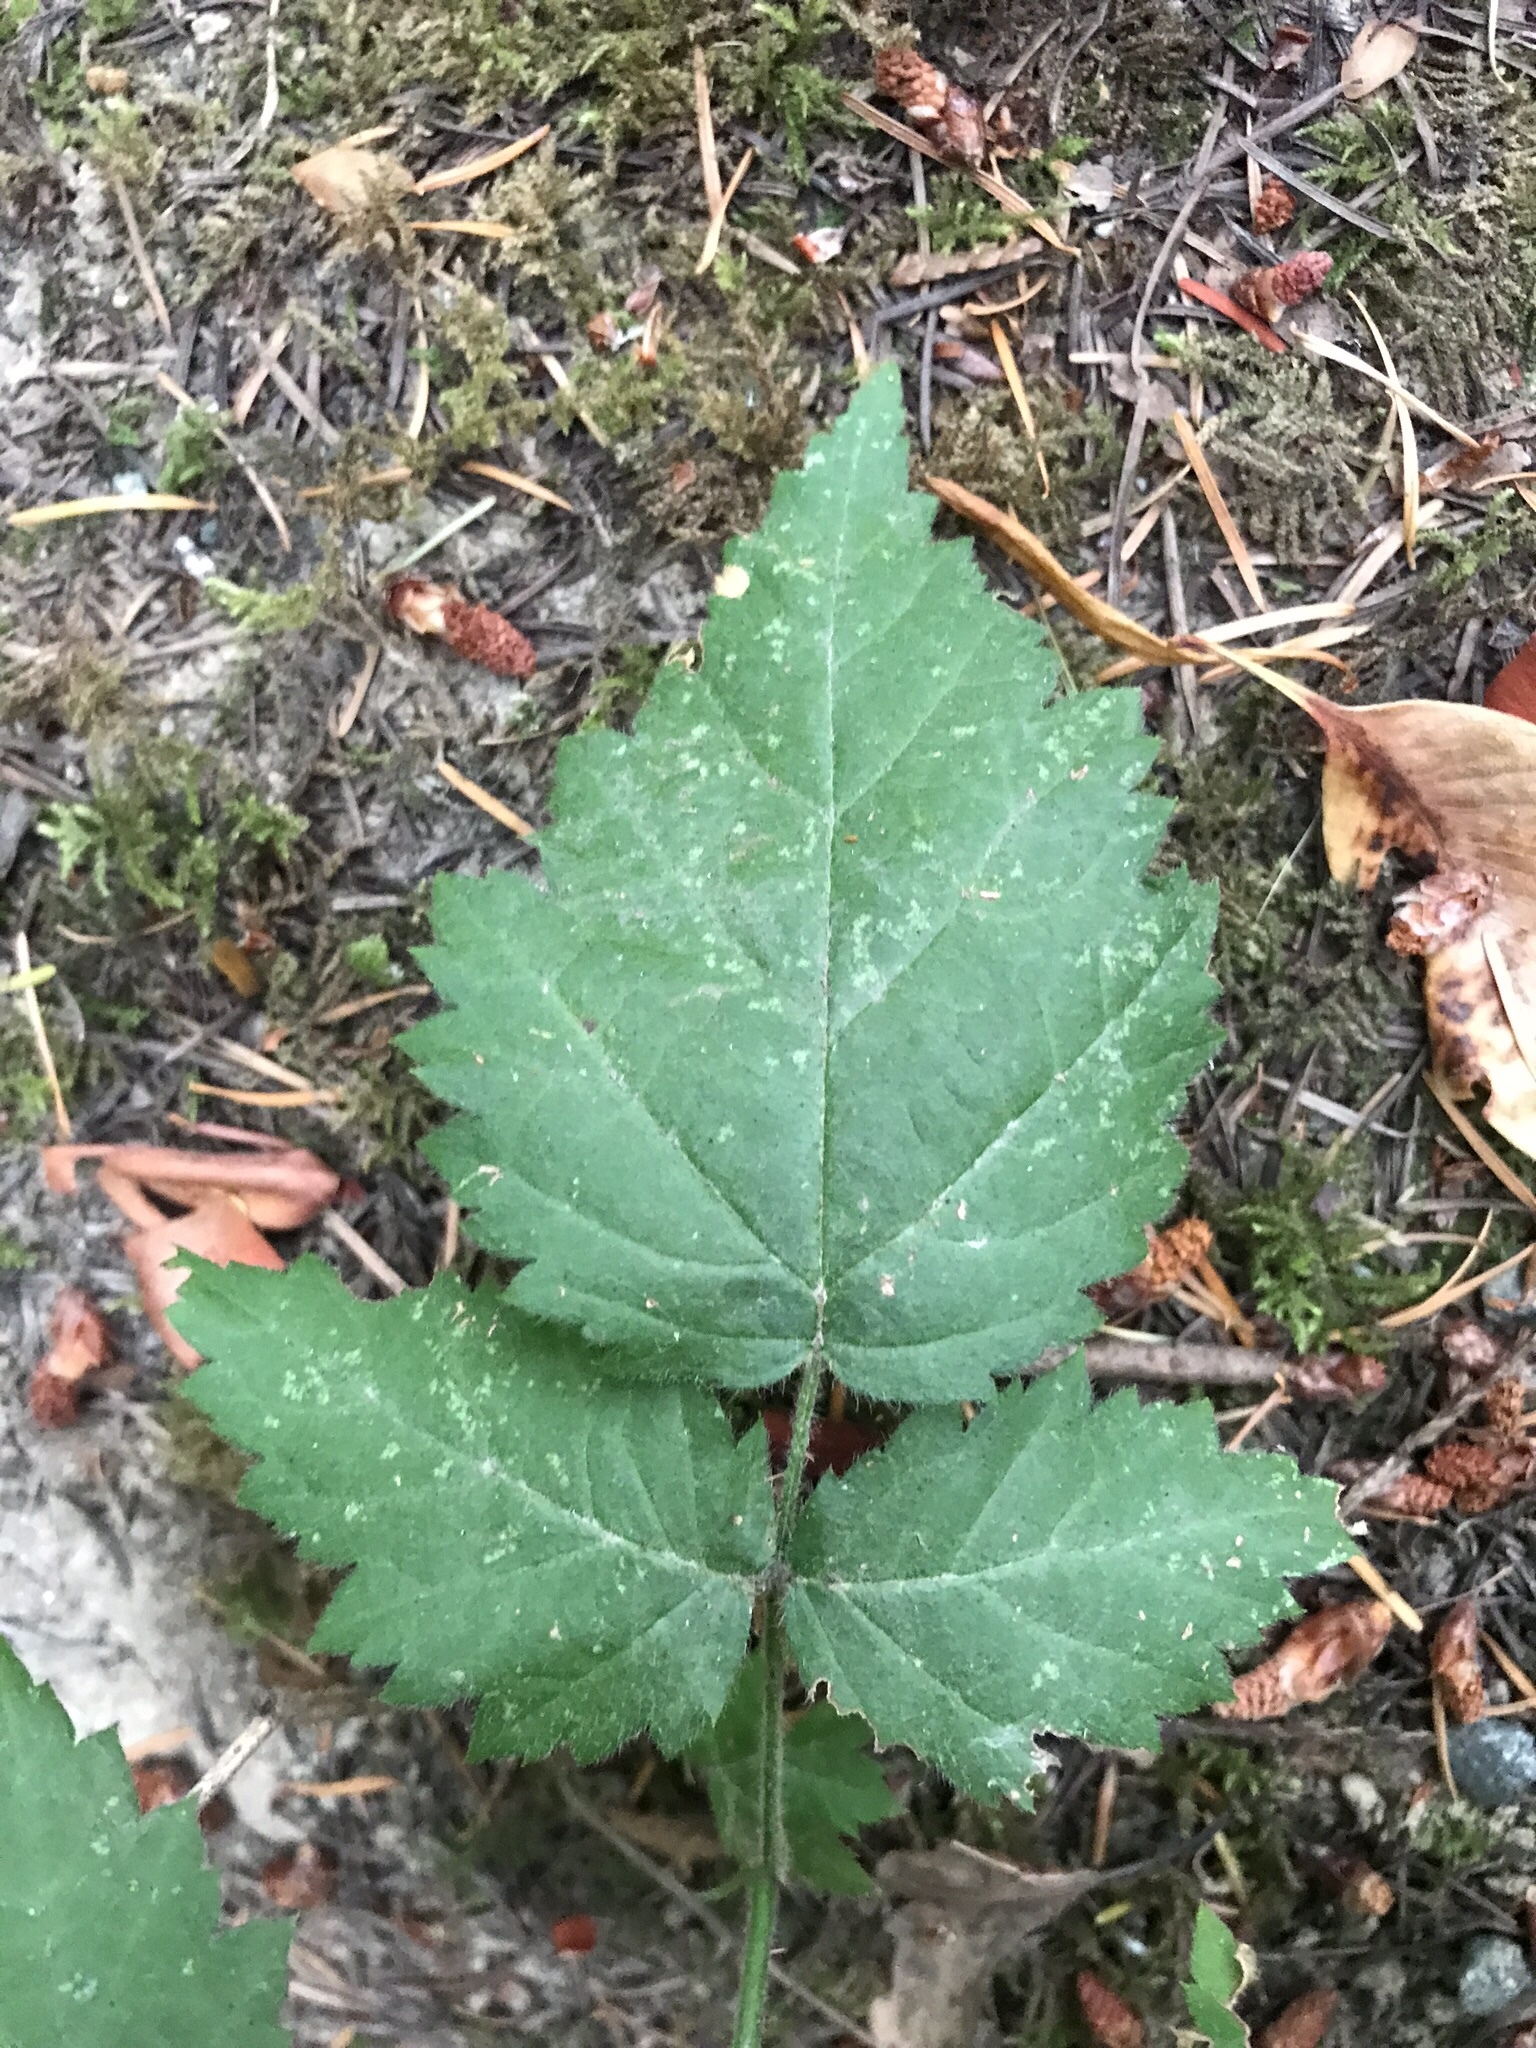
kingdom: Plantae
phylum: Tracheophyta
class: Magnoliopsida
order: Rosales
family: Rosaceae
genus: Rubus
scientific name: Rubus ursinus
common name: Pacific blackberry
